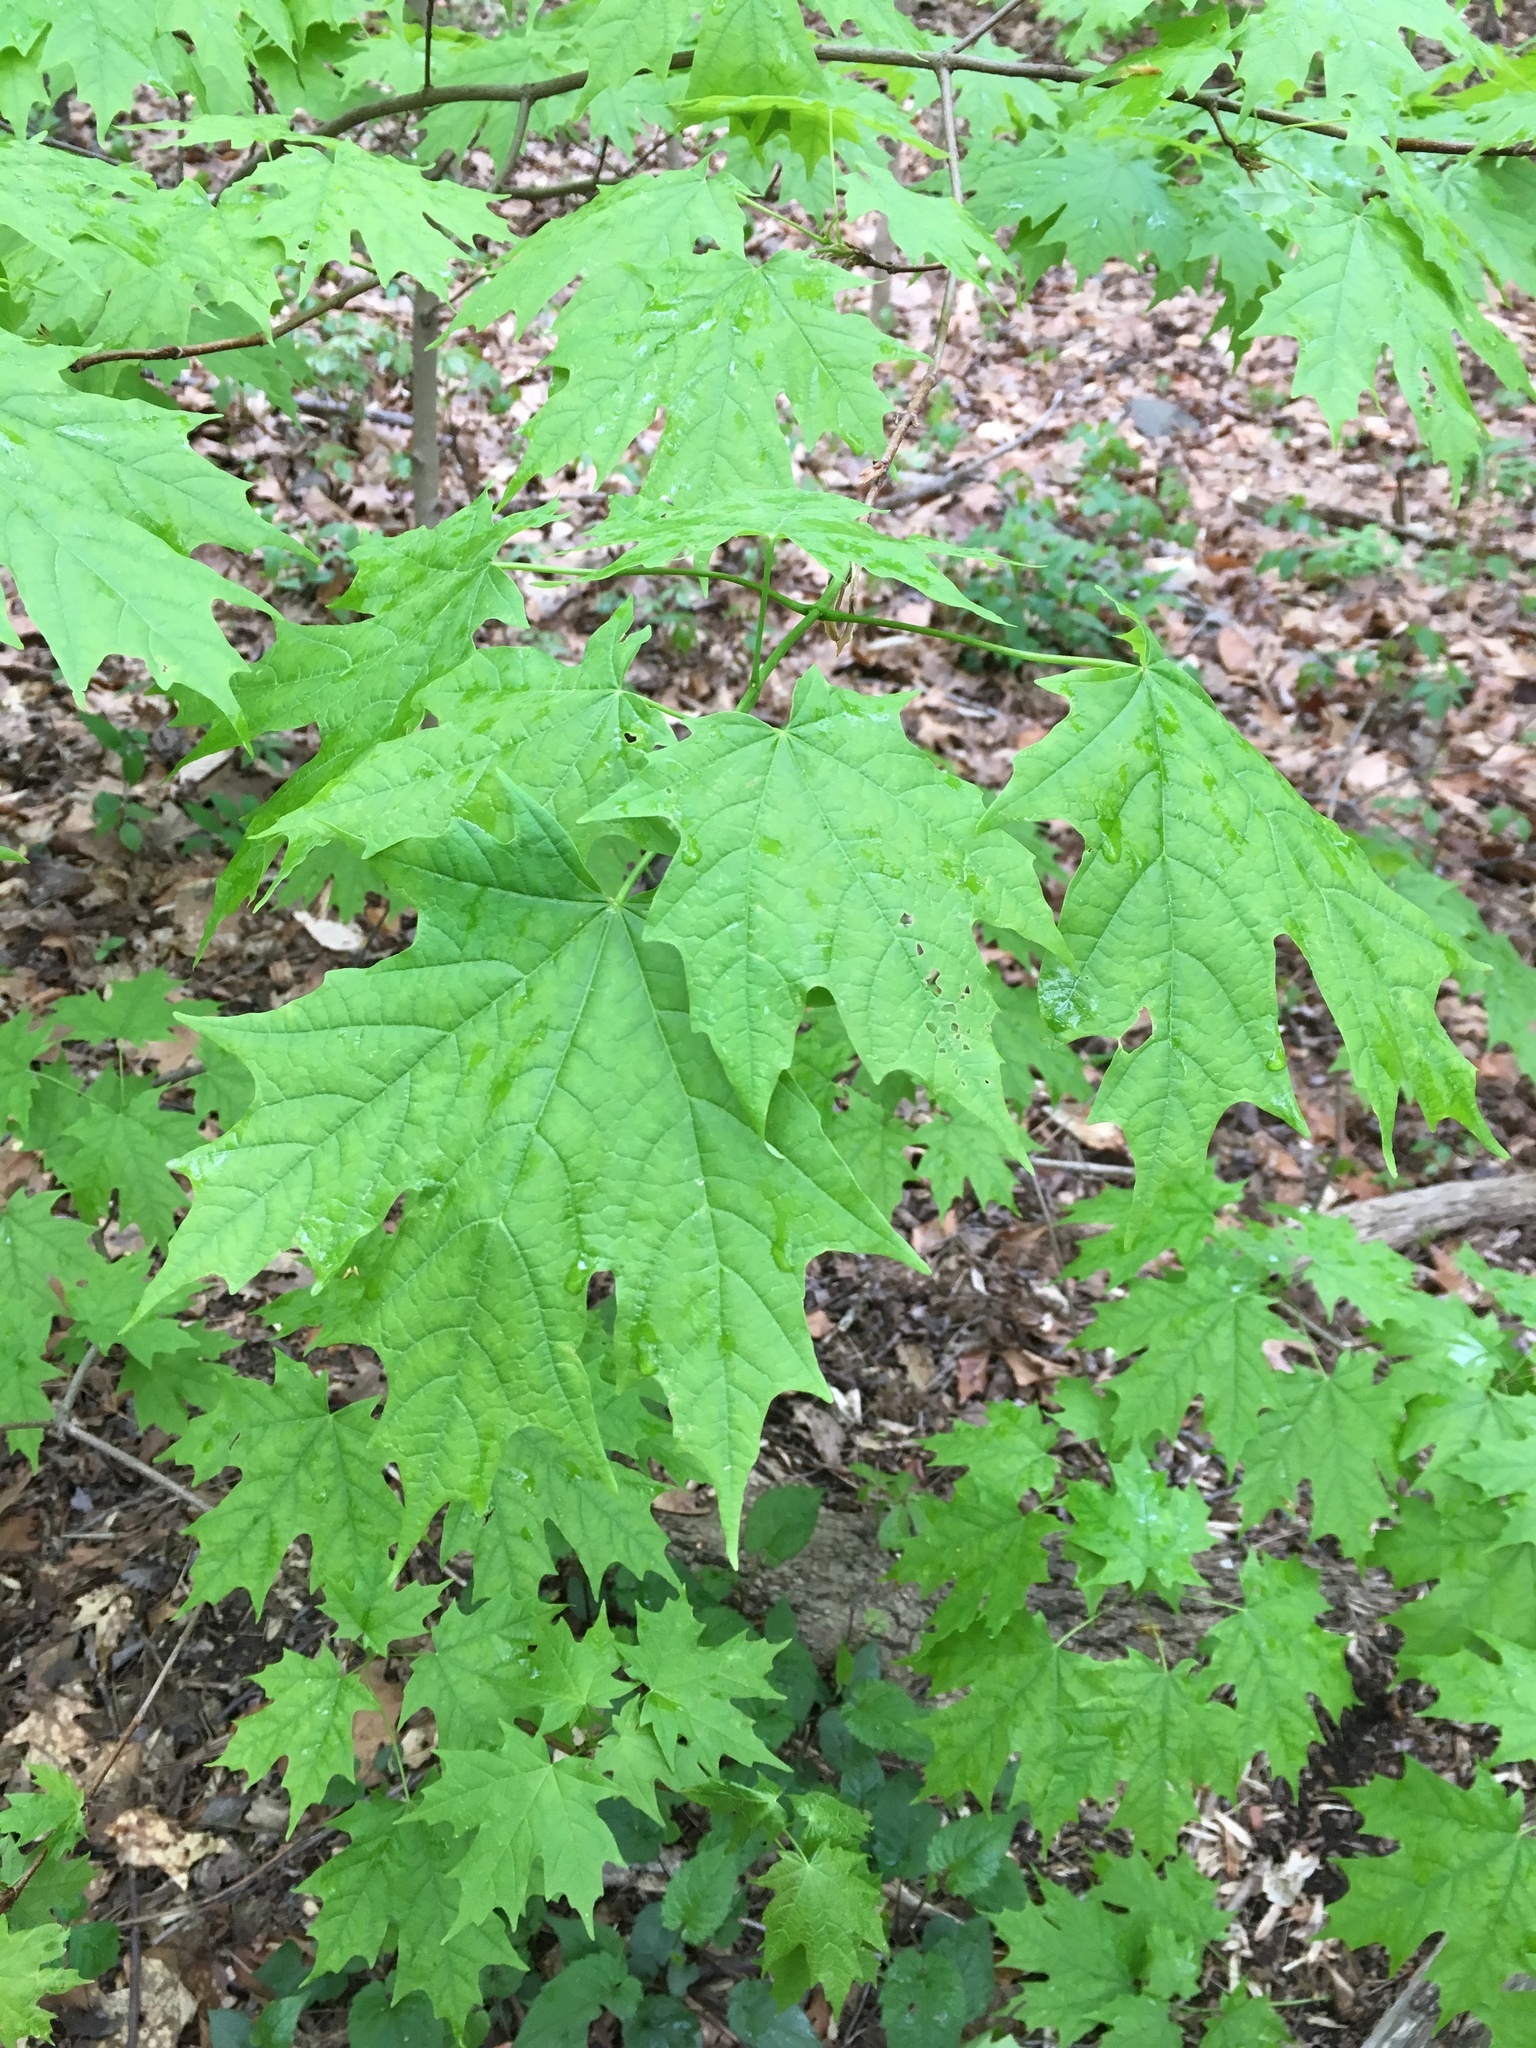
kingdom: Plantae
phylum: Tracheophyta
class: Magnoliopsida
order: Sapindales
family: Sapindaceae
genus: Acer
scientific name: Acer saccharum
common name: Sugar maple
